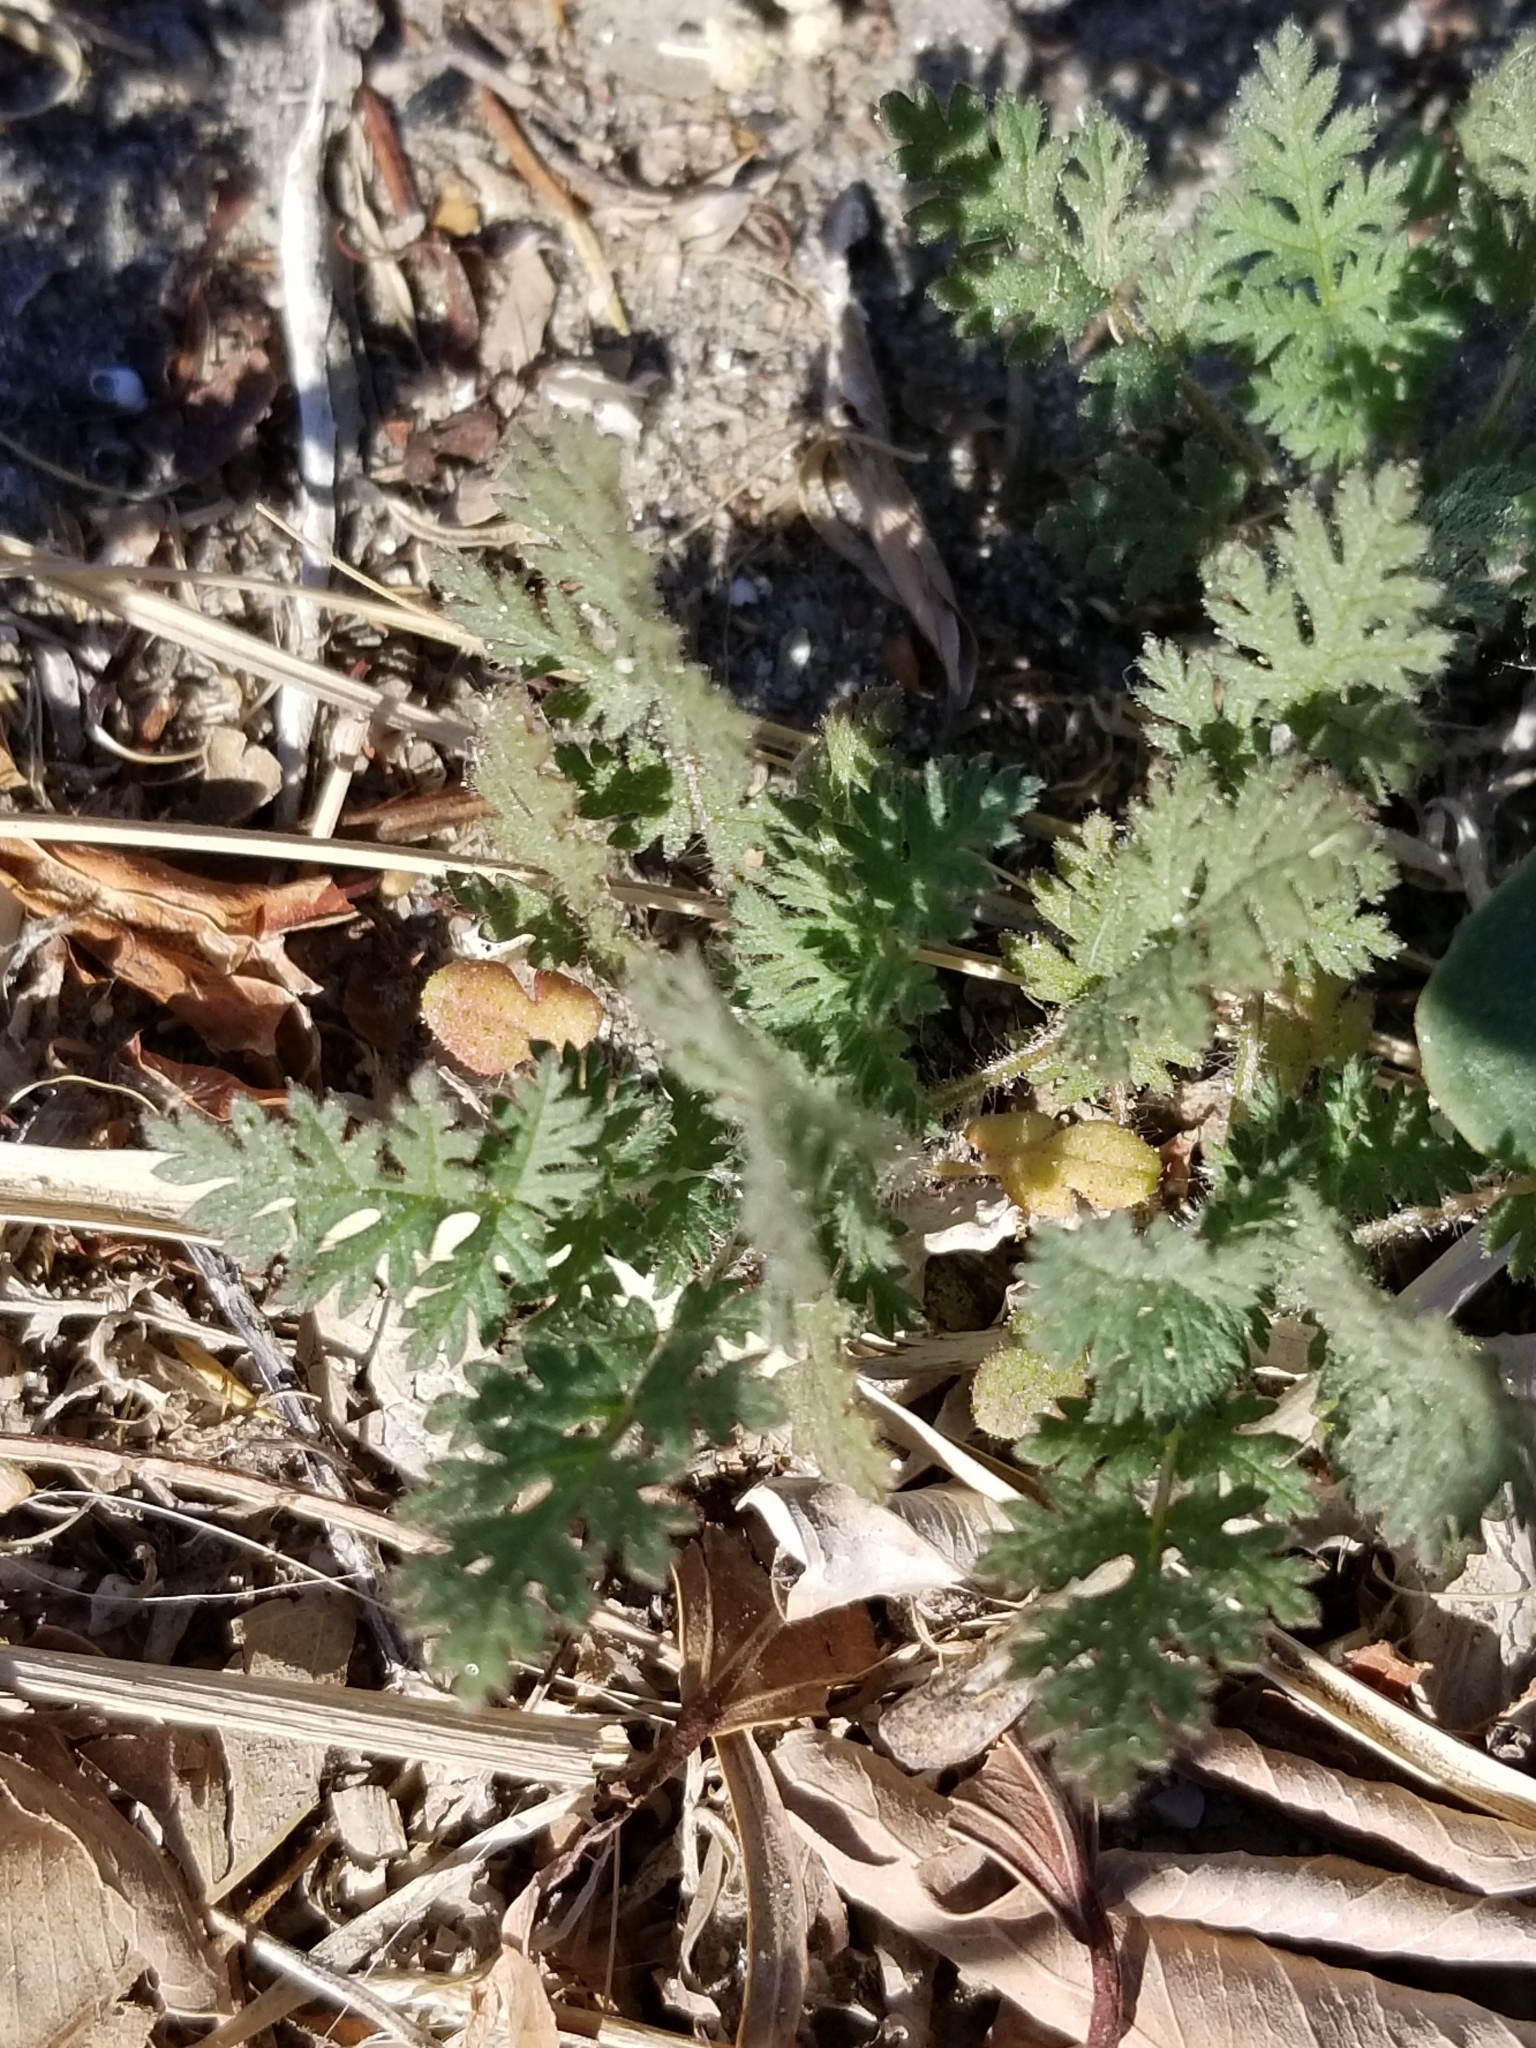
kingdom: Plantae
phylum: Tracheophyta
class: Magnoliopsida
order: Geraniales
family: Geraniaceae
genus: Erodium
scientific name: Erodium cicutarium
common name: Common stork's-bill
